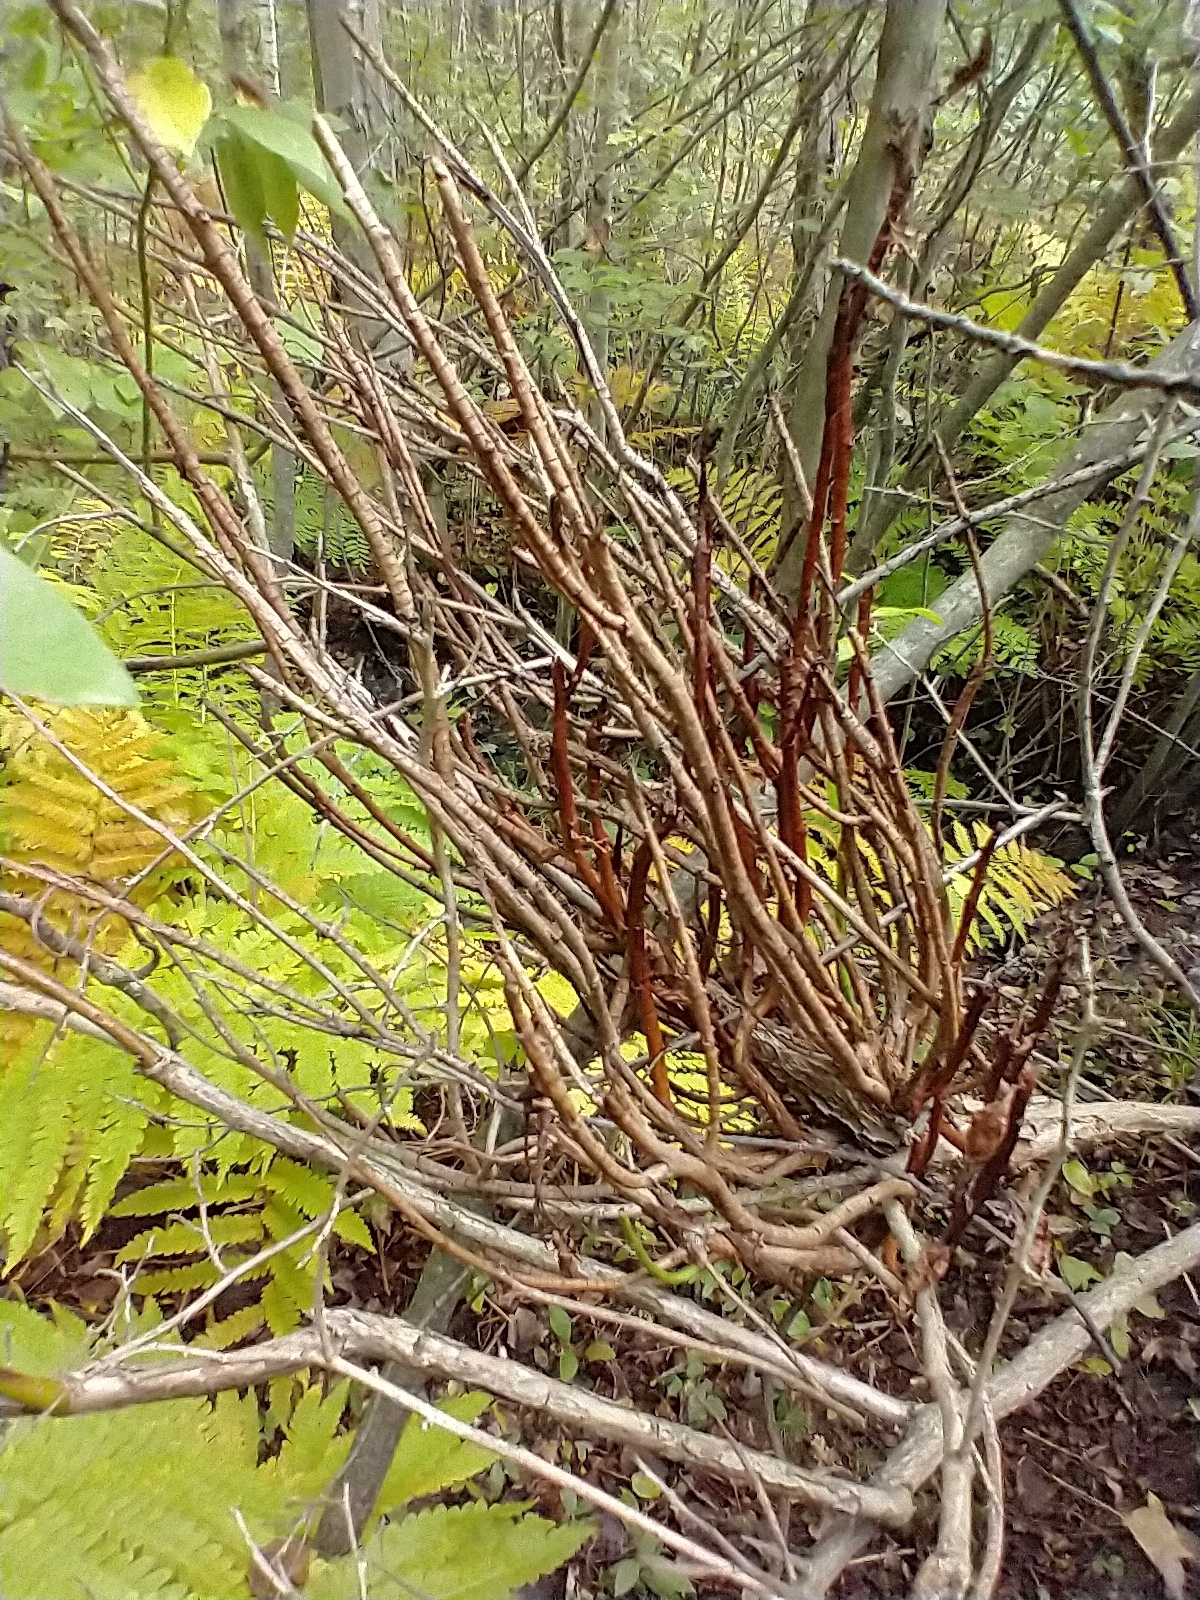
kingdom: Fungi
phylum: Basidiomycota
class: Pucciniomycetes
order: Pucciniales
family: Pucciniastraceae
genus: Calyptospora
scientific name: Calyptospora columnaris
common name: Huckleberry broom rust fungus
